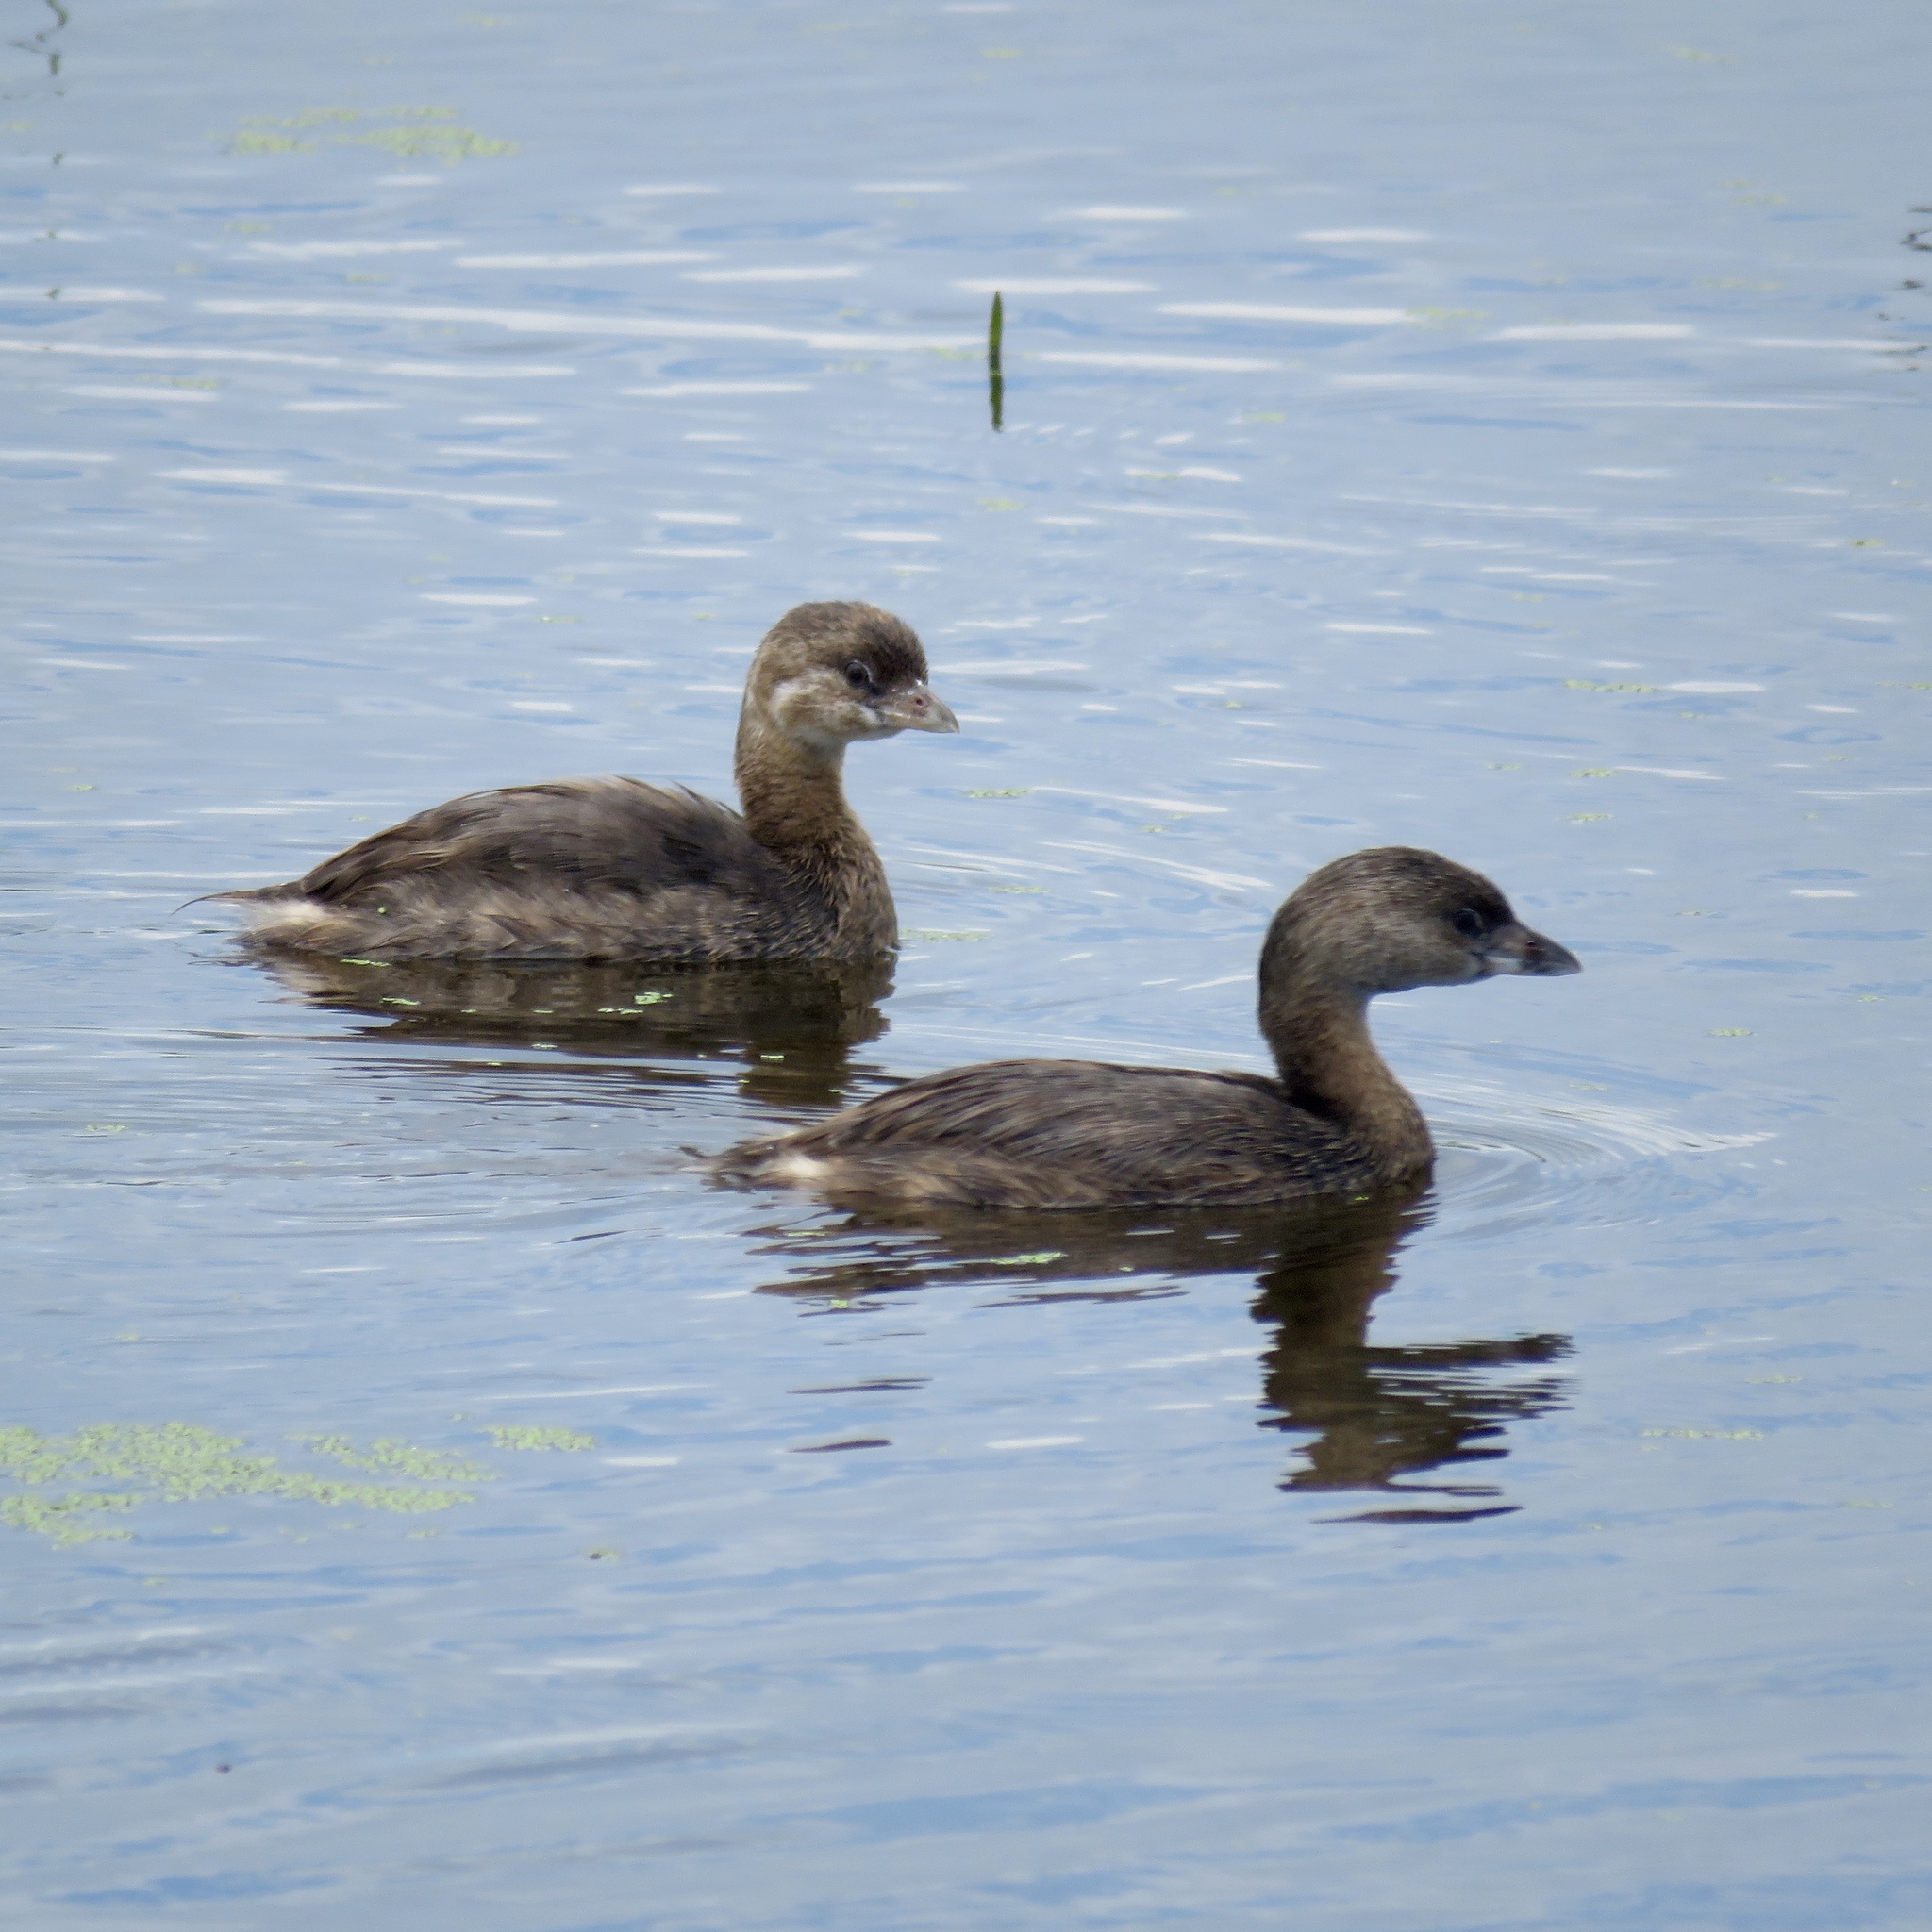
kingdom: Animalia
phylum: Chordata
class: Aves
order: Podicipediformes
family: Podicipedidae
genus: Podilymbus
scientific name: Podilymbus podiceps
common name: Pied-billed grebe
